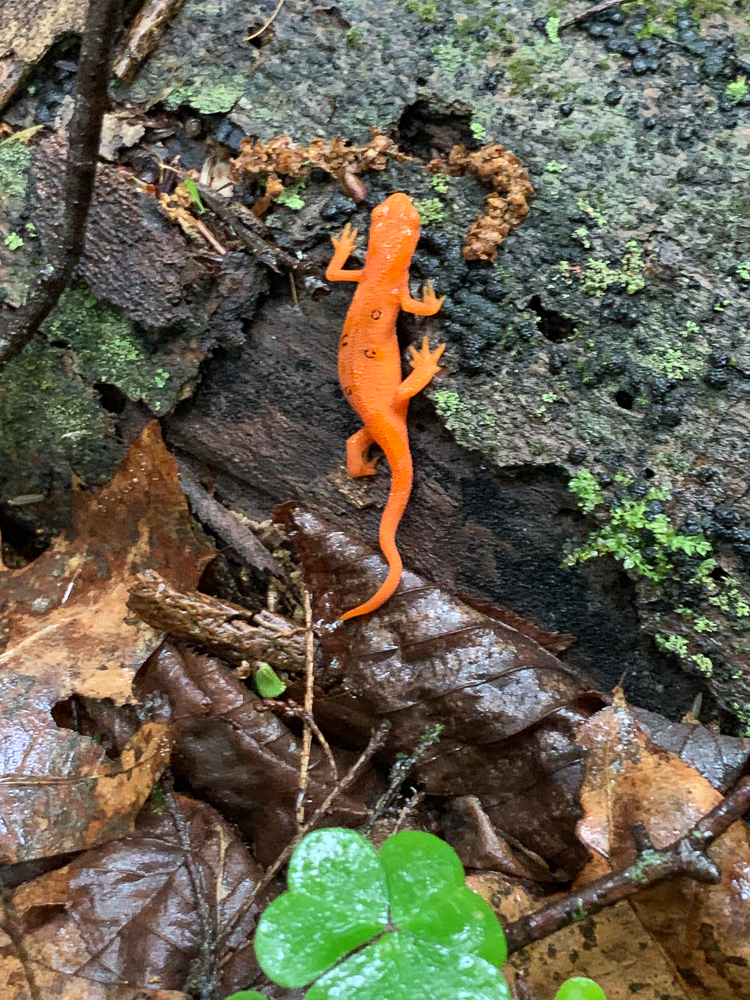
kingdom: Animalia
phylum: Chordata
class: Amphibia
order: Caudata
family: Salamandridae
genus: Notophthalmus
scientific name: Notophthalmus viridescens
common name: Eastern newt
